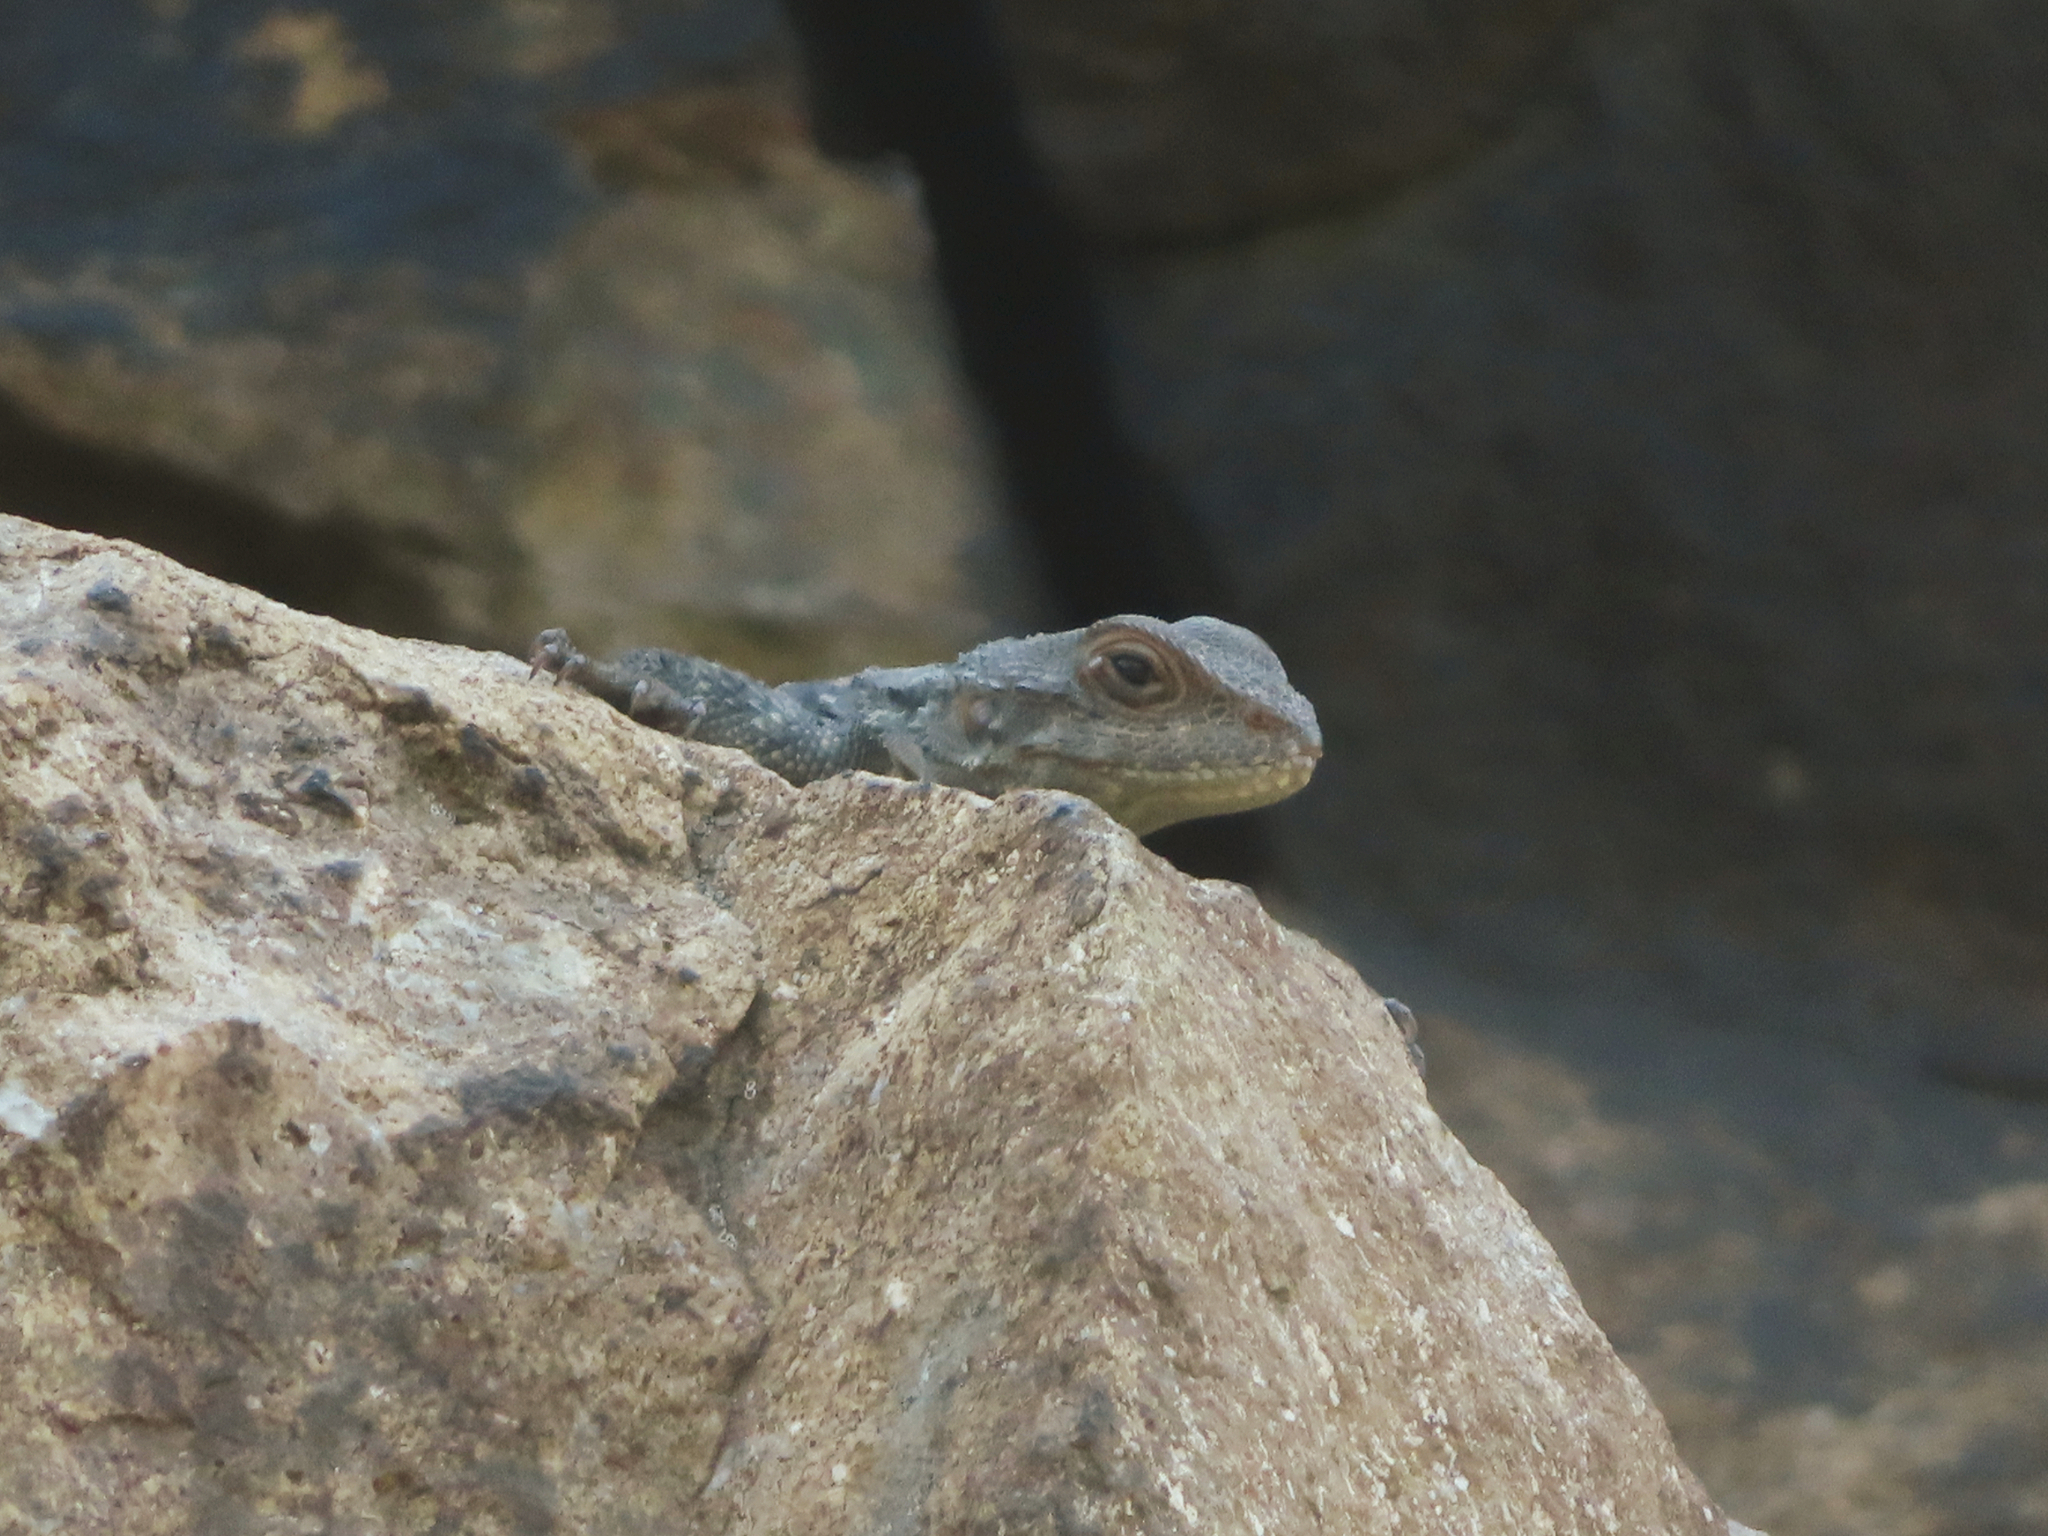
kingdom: Animalia
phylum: Chordata
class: Squamata
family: Agamidae
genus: Paralaudakia
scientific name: Paralaudakia caucasia
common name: Caucasian agama
